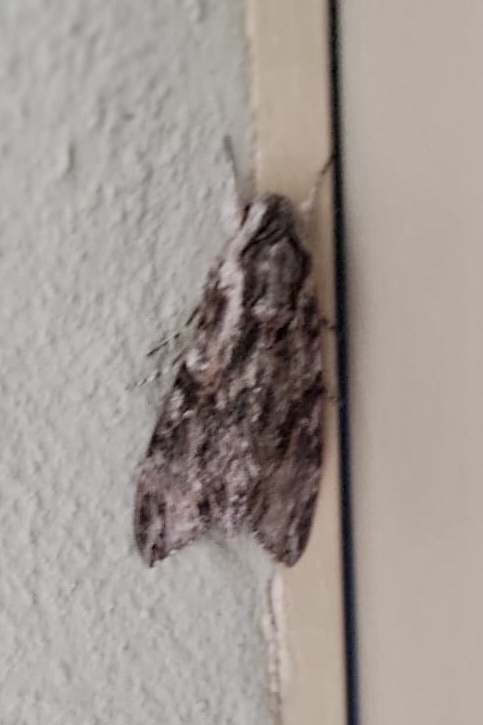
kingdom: Animalia
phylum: Arthropoda
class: Insecta
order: Lepidoptera
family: Sphingidae
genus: Agrius
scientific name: Agrius convolvuli
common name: Convolvulus hawkmoth
